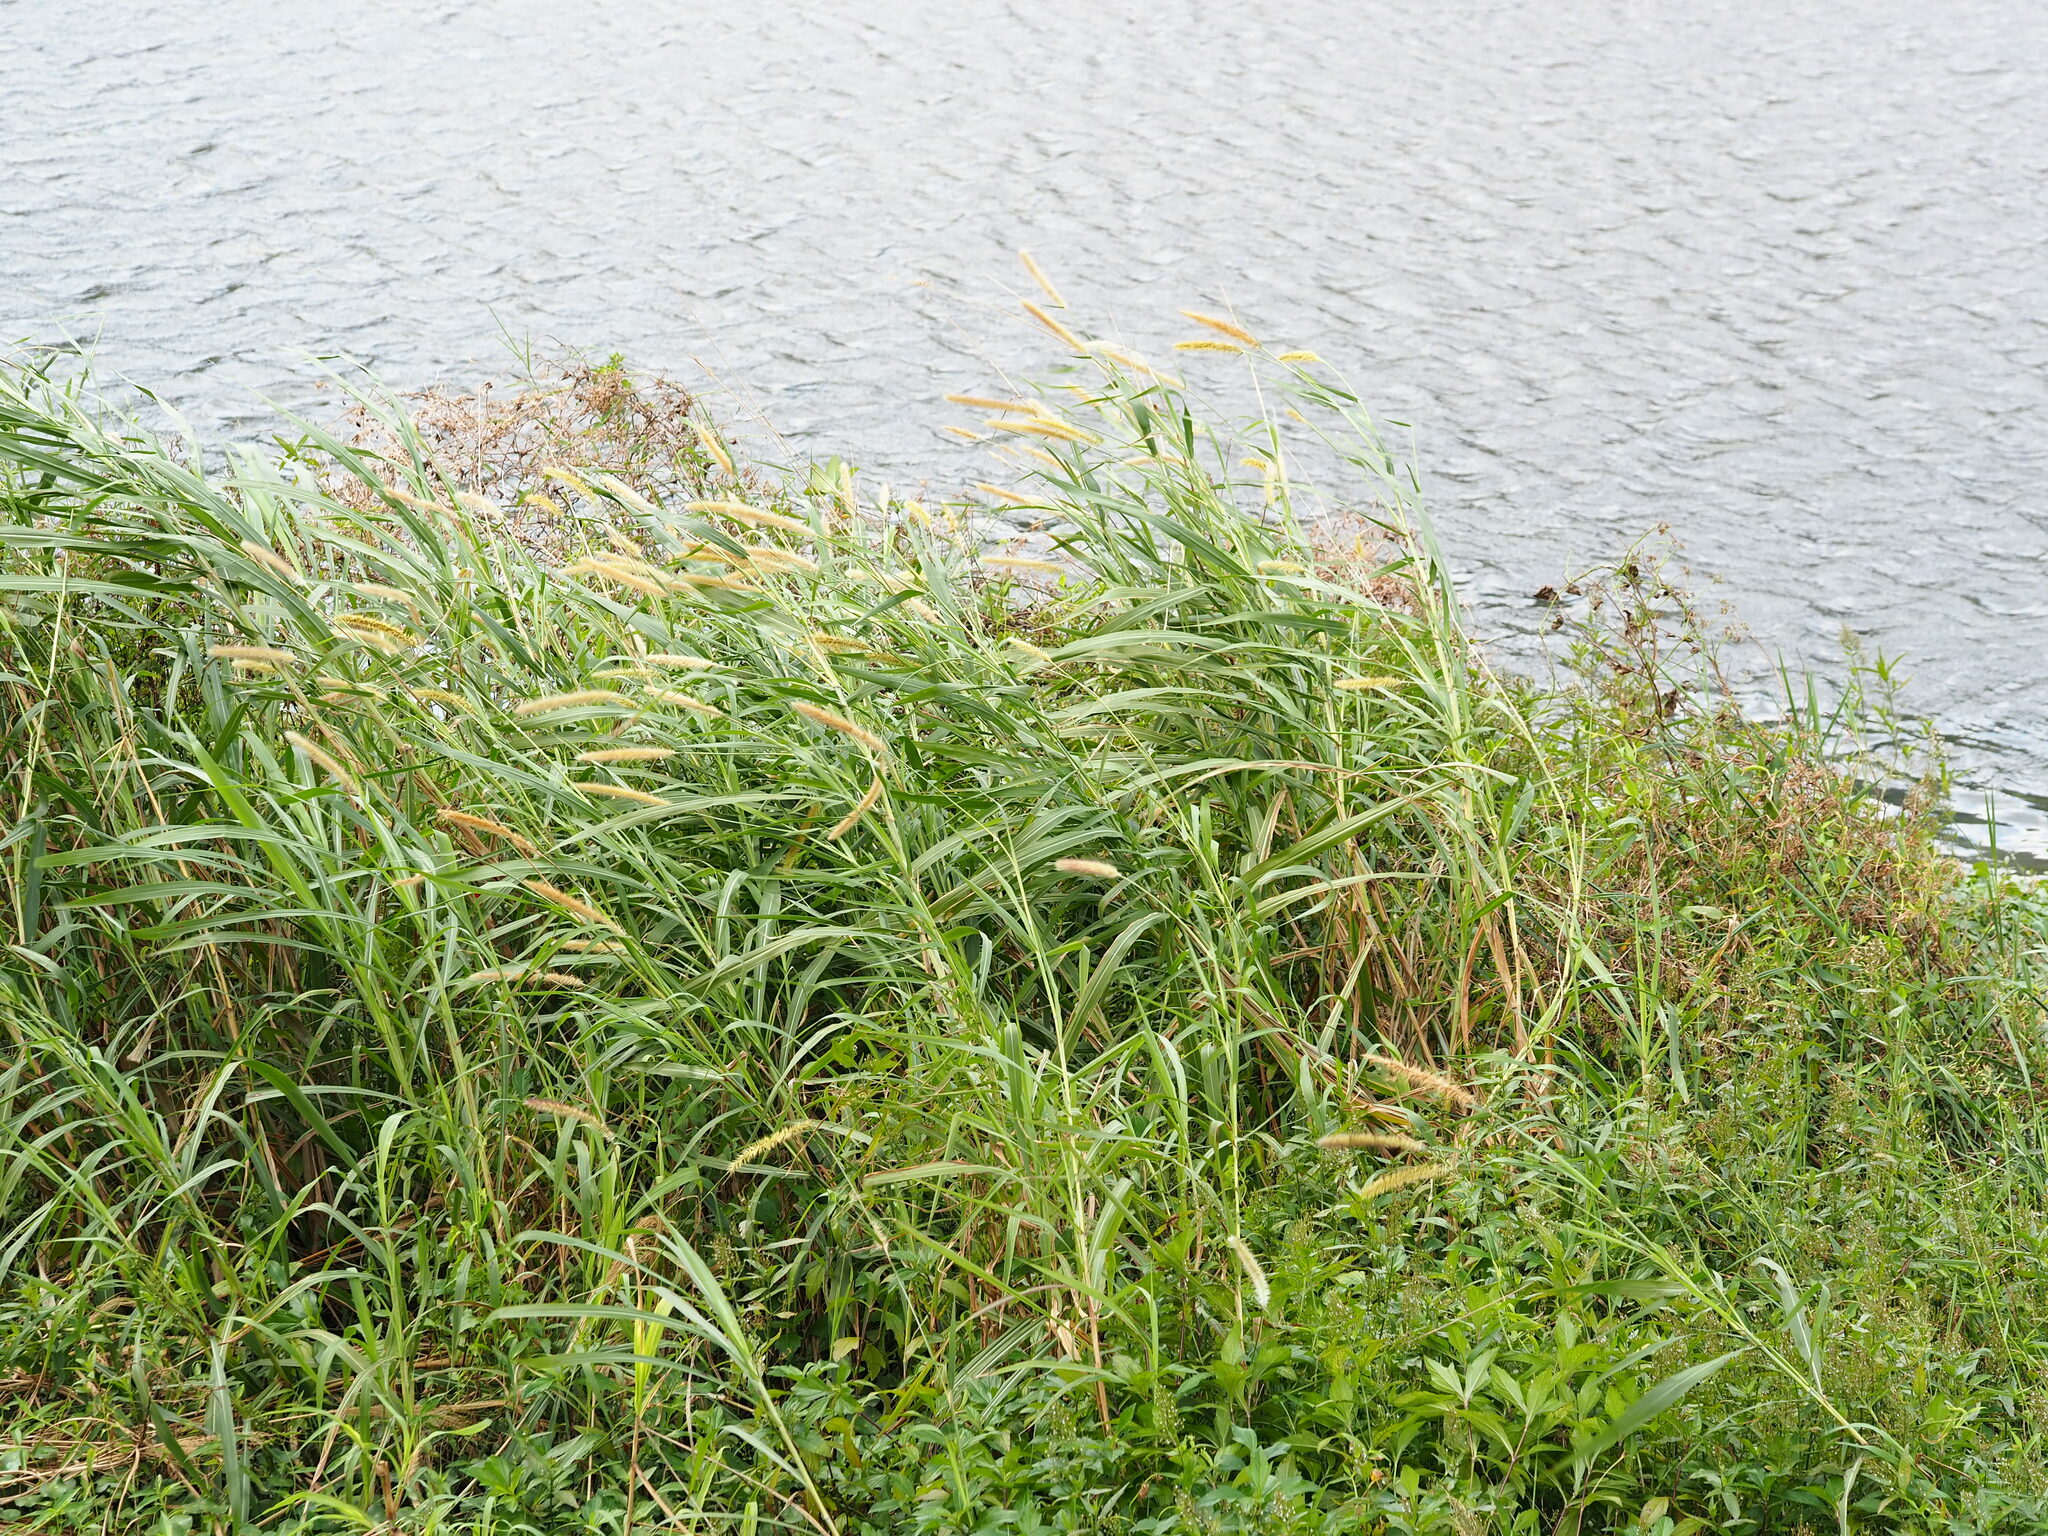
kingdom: Plantae
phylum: Tracheophyta
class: Liliopsida
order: Poales
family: Poaceae
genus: Cenchrus
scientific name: Cenchrus purpureus
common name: Elephant grass
